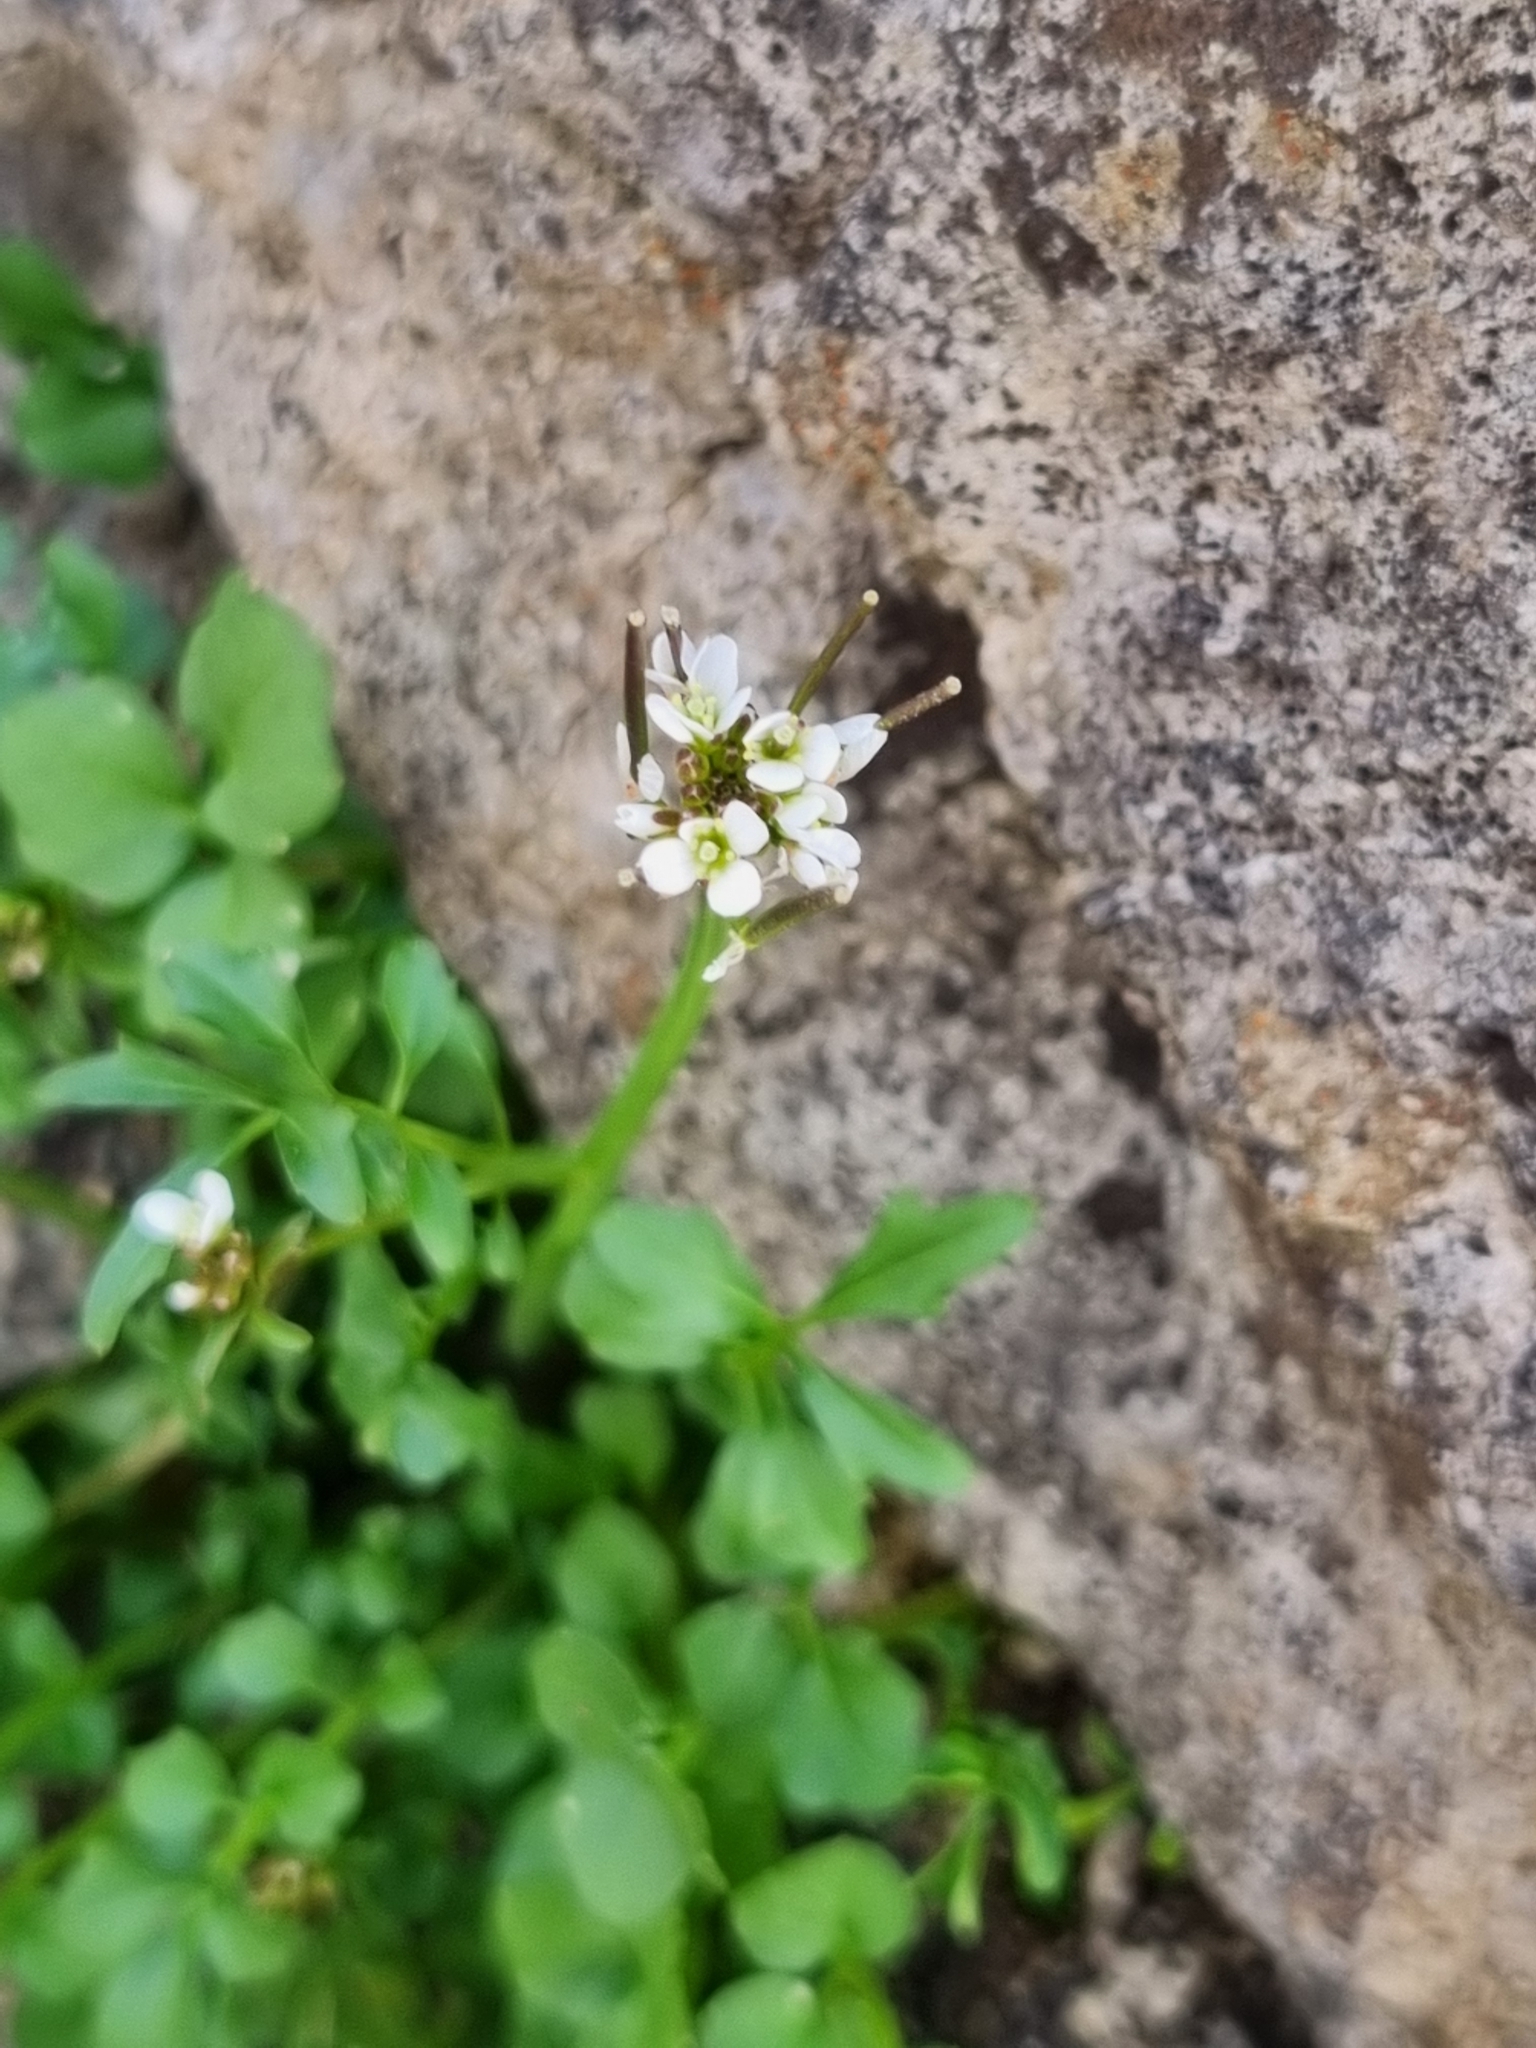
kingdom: Plantae
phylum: Tracheophyta
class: Magnoliopsida
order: Brassicales
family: Brassicaceae
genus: Cardamine
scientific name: Cardamine hirsuta
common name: Hairy bittercress
